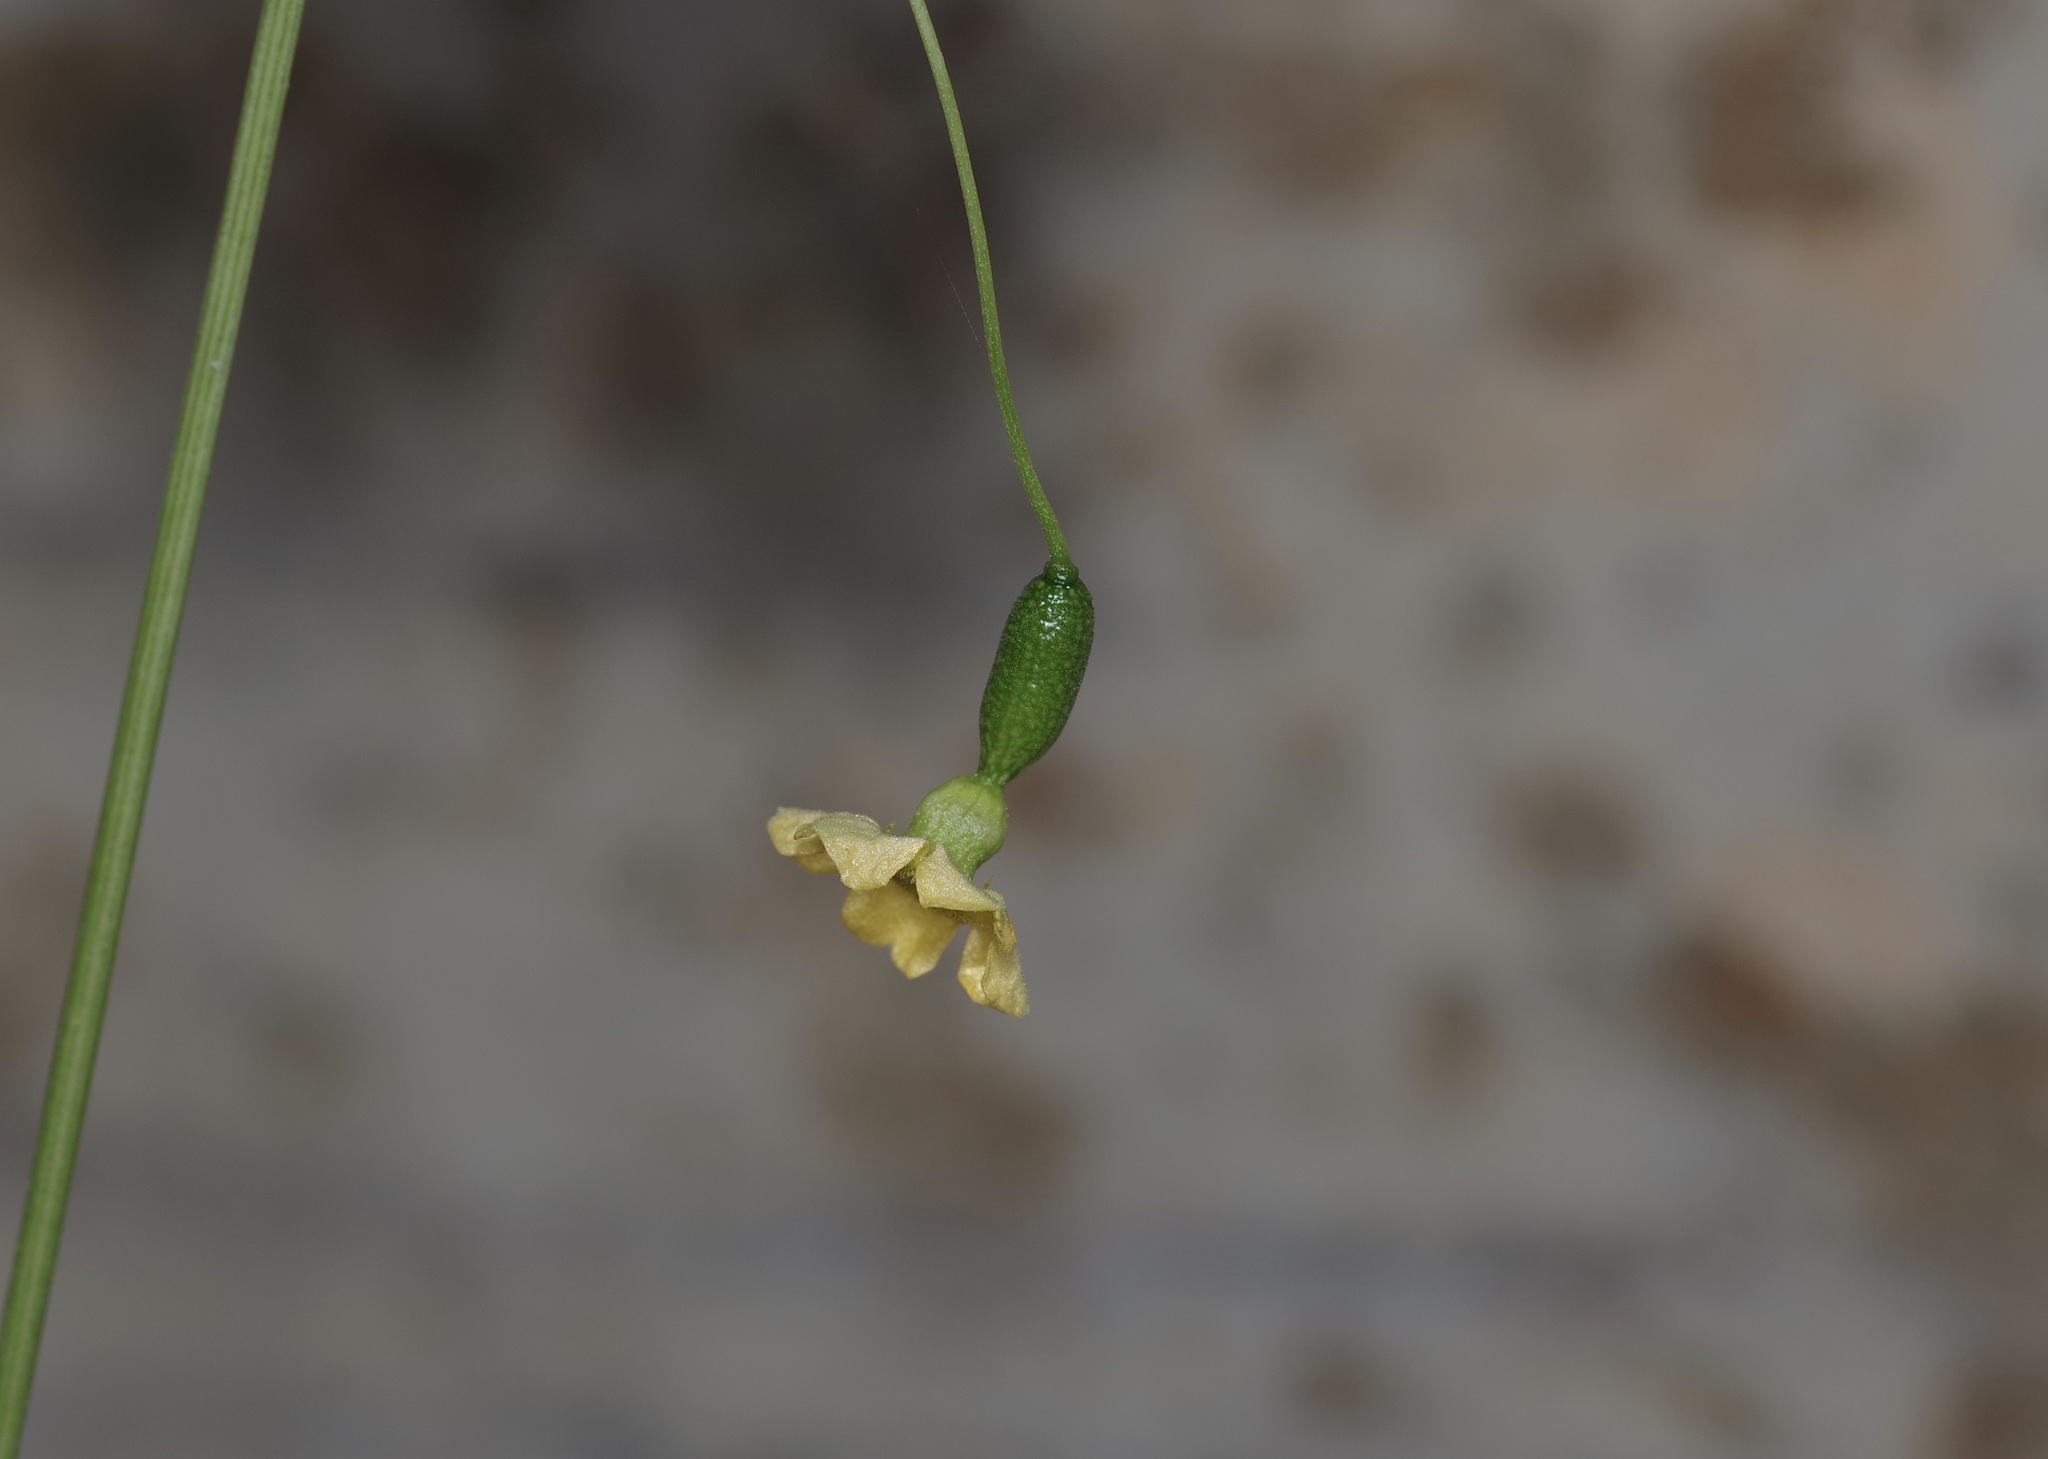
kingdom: Plantae
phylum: Tracheophyta
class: Magnoliopsida
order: Cucurbitales
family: Cucurbitaceae
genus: Melothria
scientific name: Melothria pendula
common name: Creeping-cucumber
